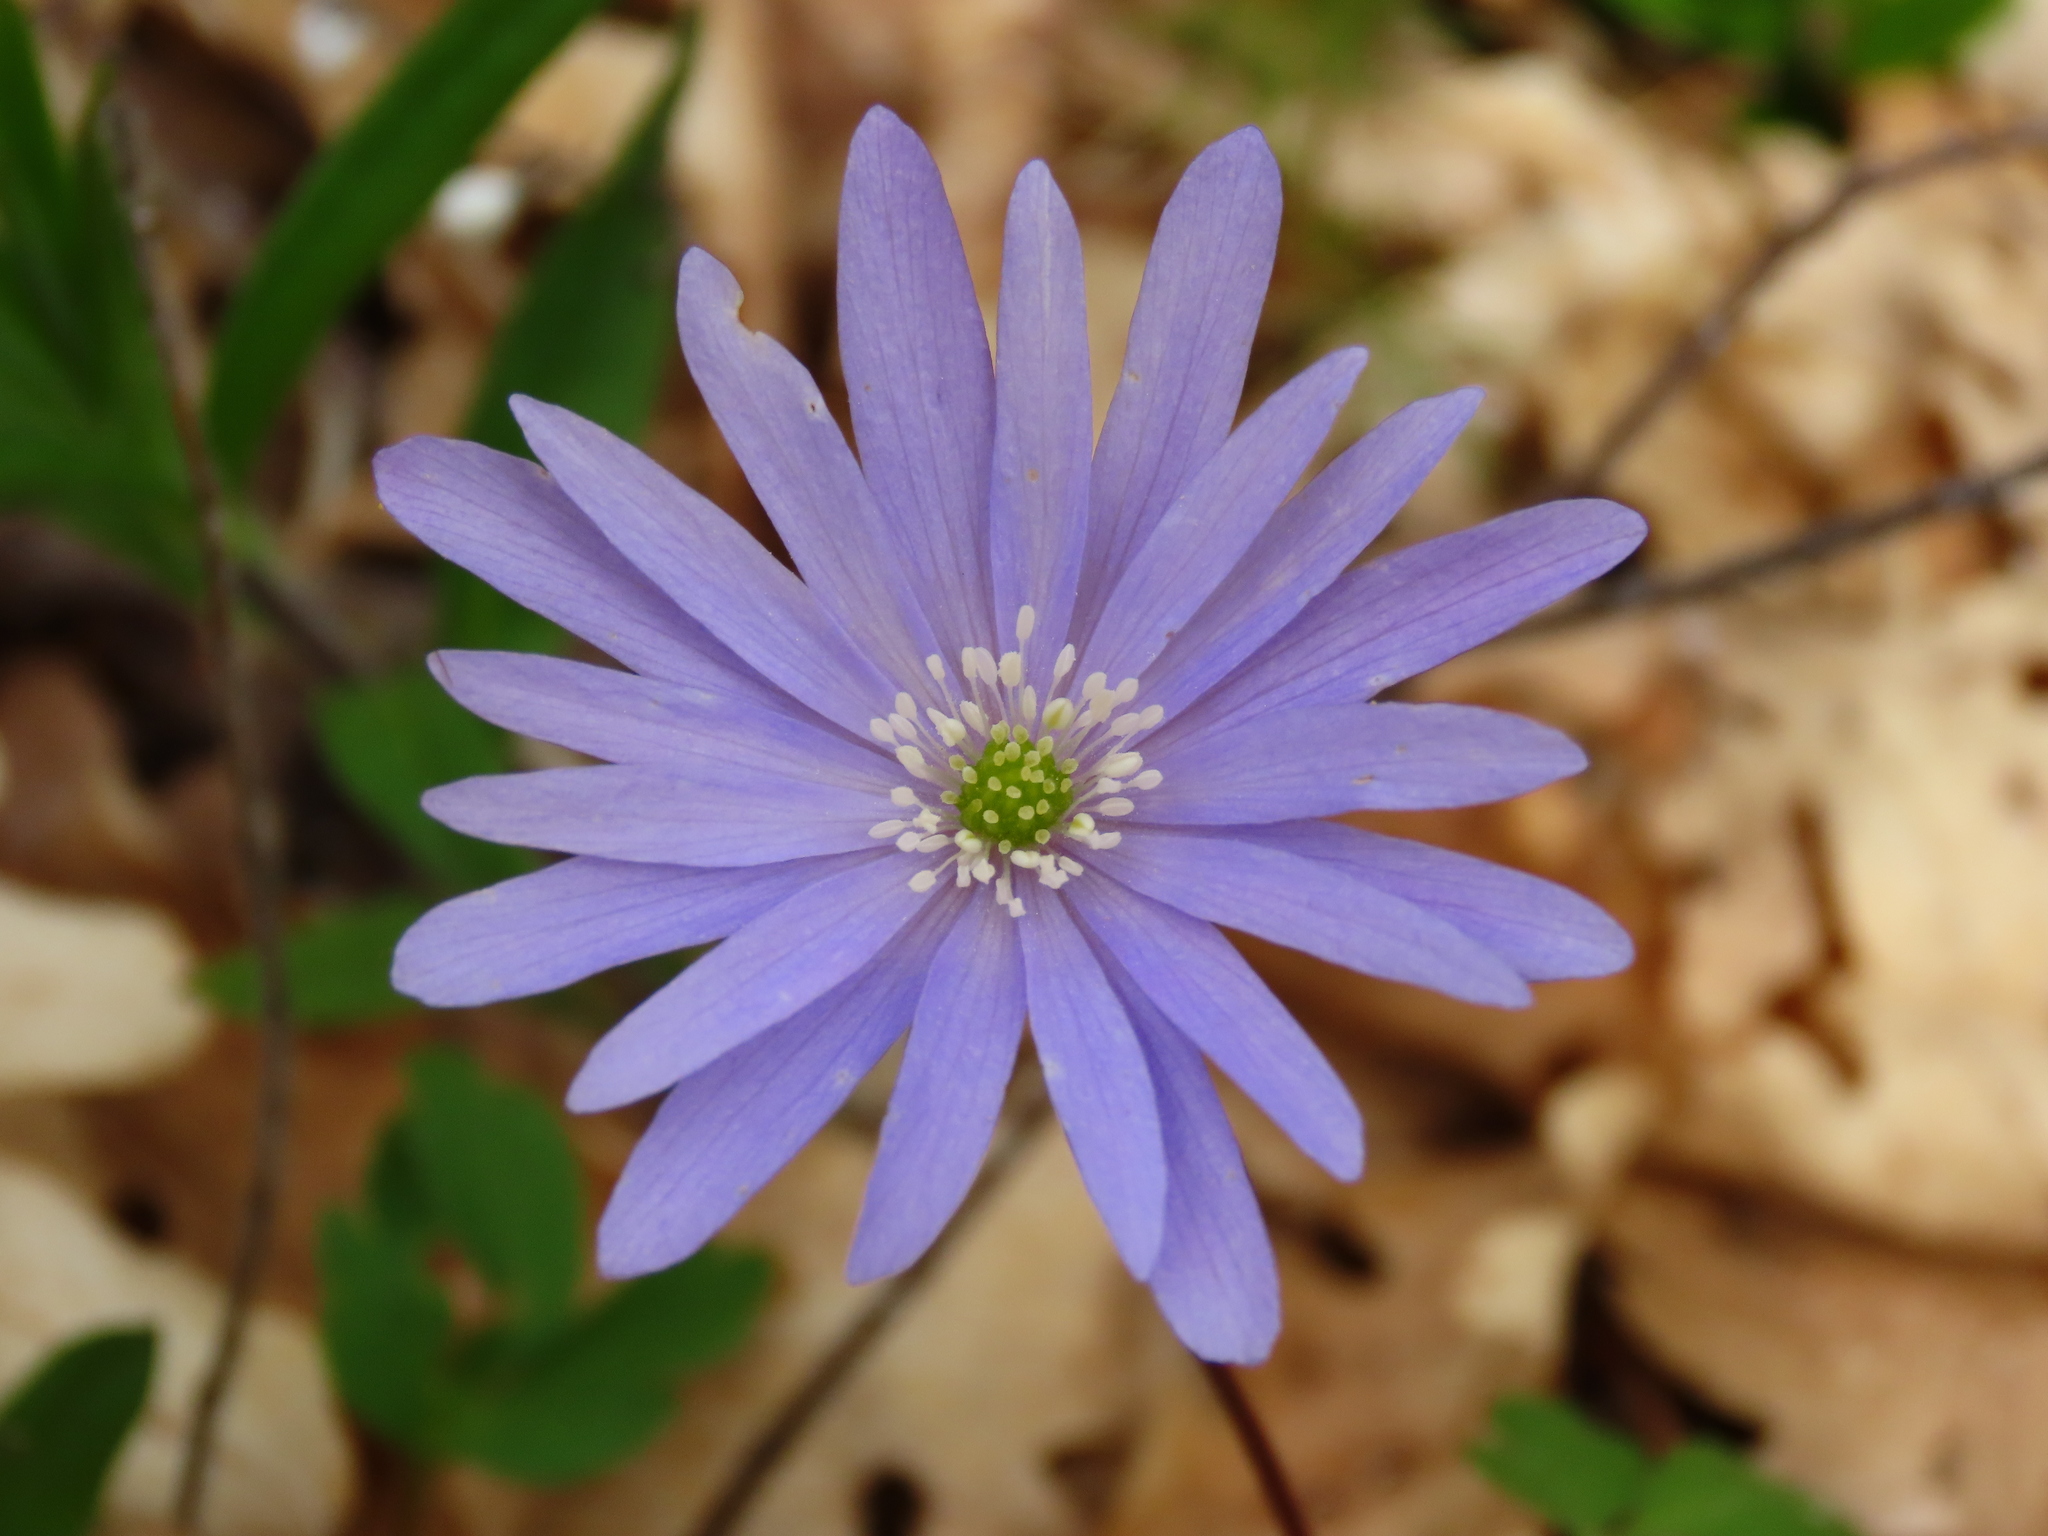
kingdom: Plantae
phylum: Tracheophyta
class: Magnoliopsida
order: Ranunculales
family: Ranunculaceae
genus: Anemone
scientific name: Anemone apennina
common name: Blue anemone
